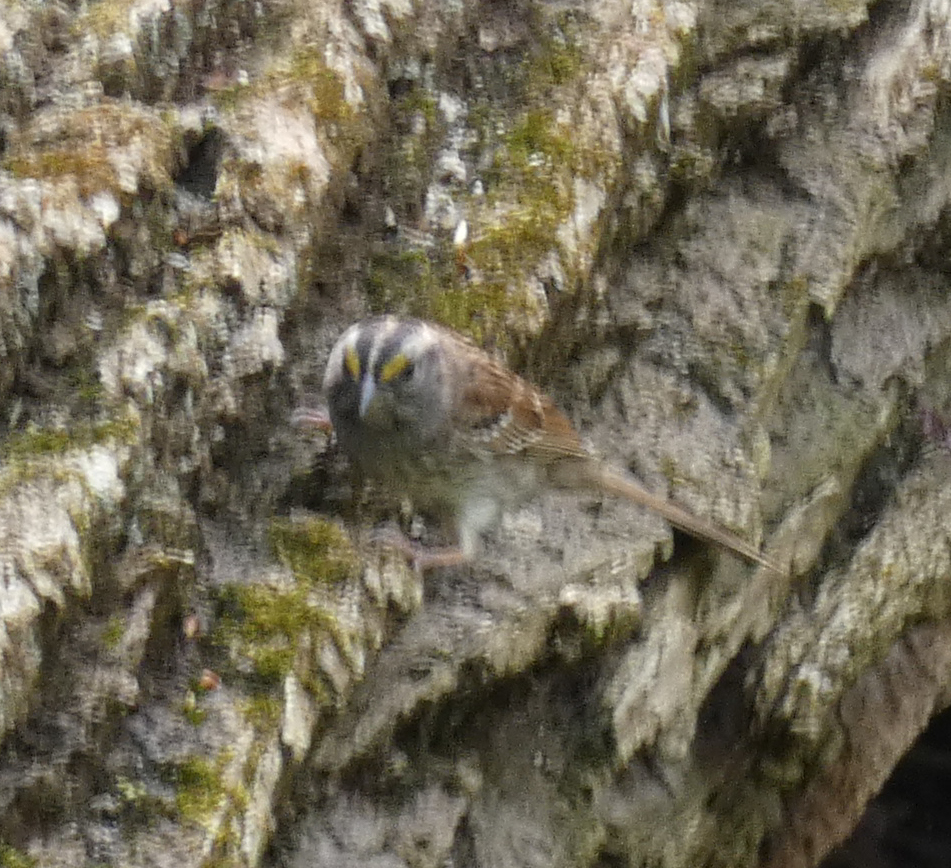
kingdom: Animalia
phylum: Chordata
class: Aves
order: Passeriformes
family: Passerellidae
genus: Zonotrichia
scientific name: Zonotrichia albicollis
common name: White-throated sparrow
